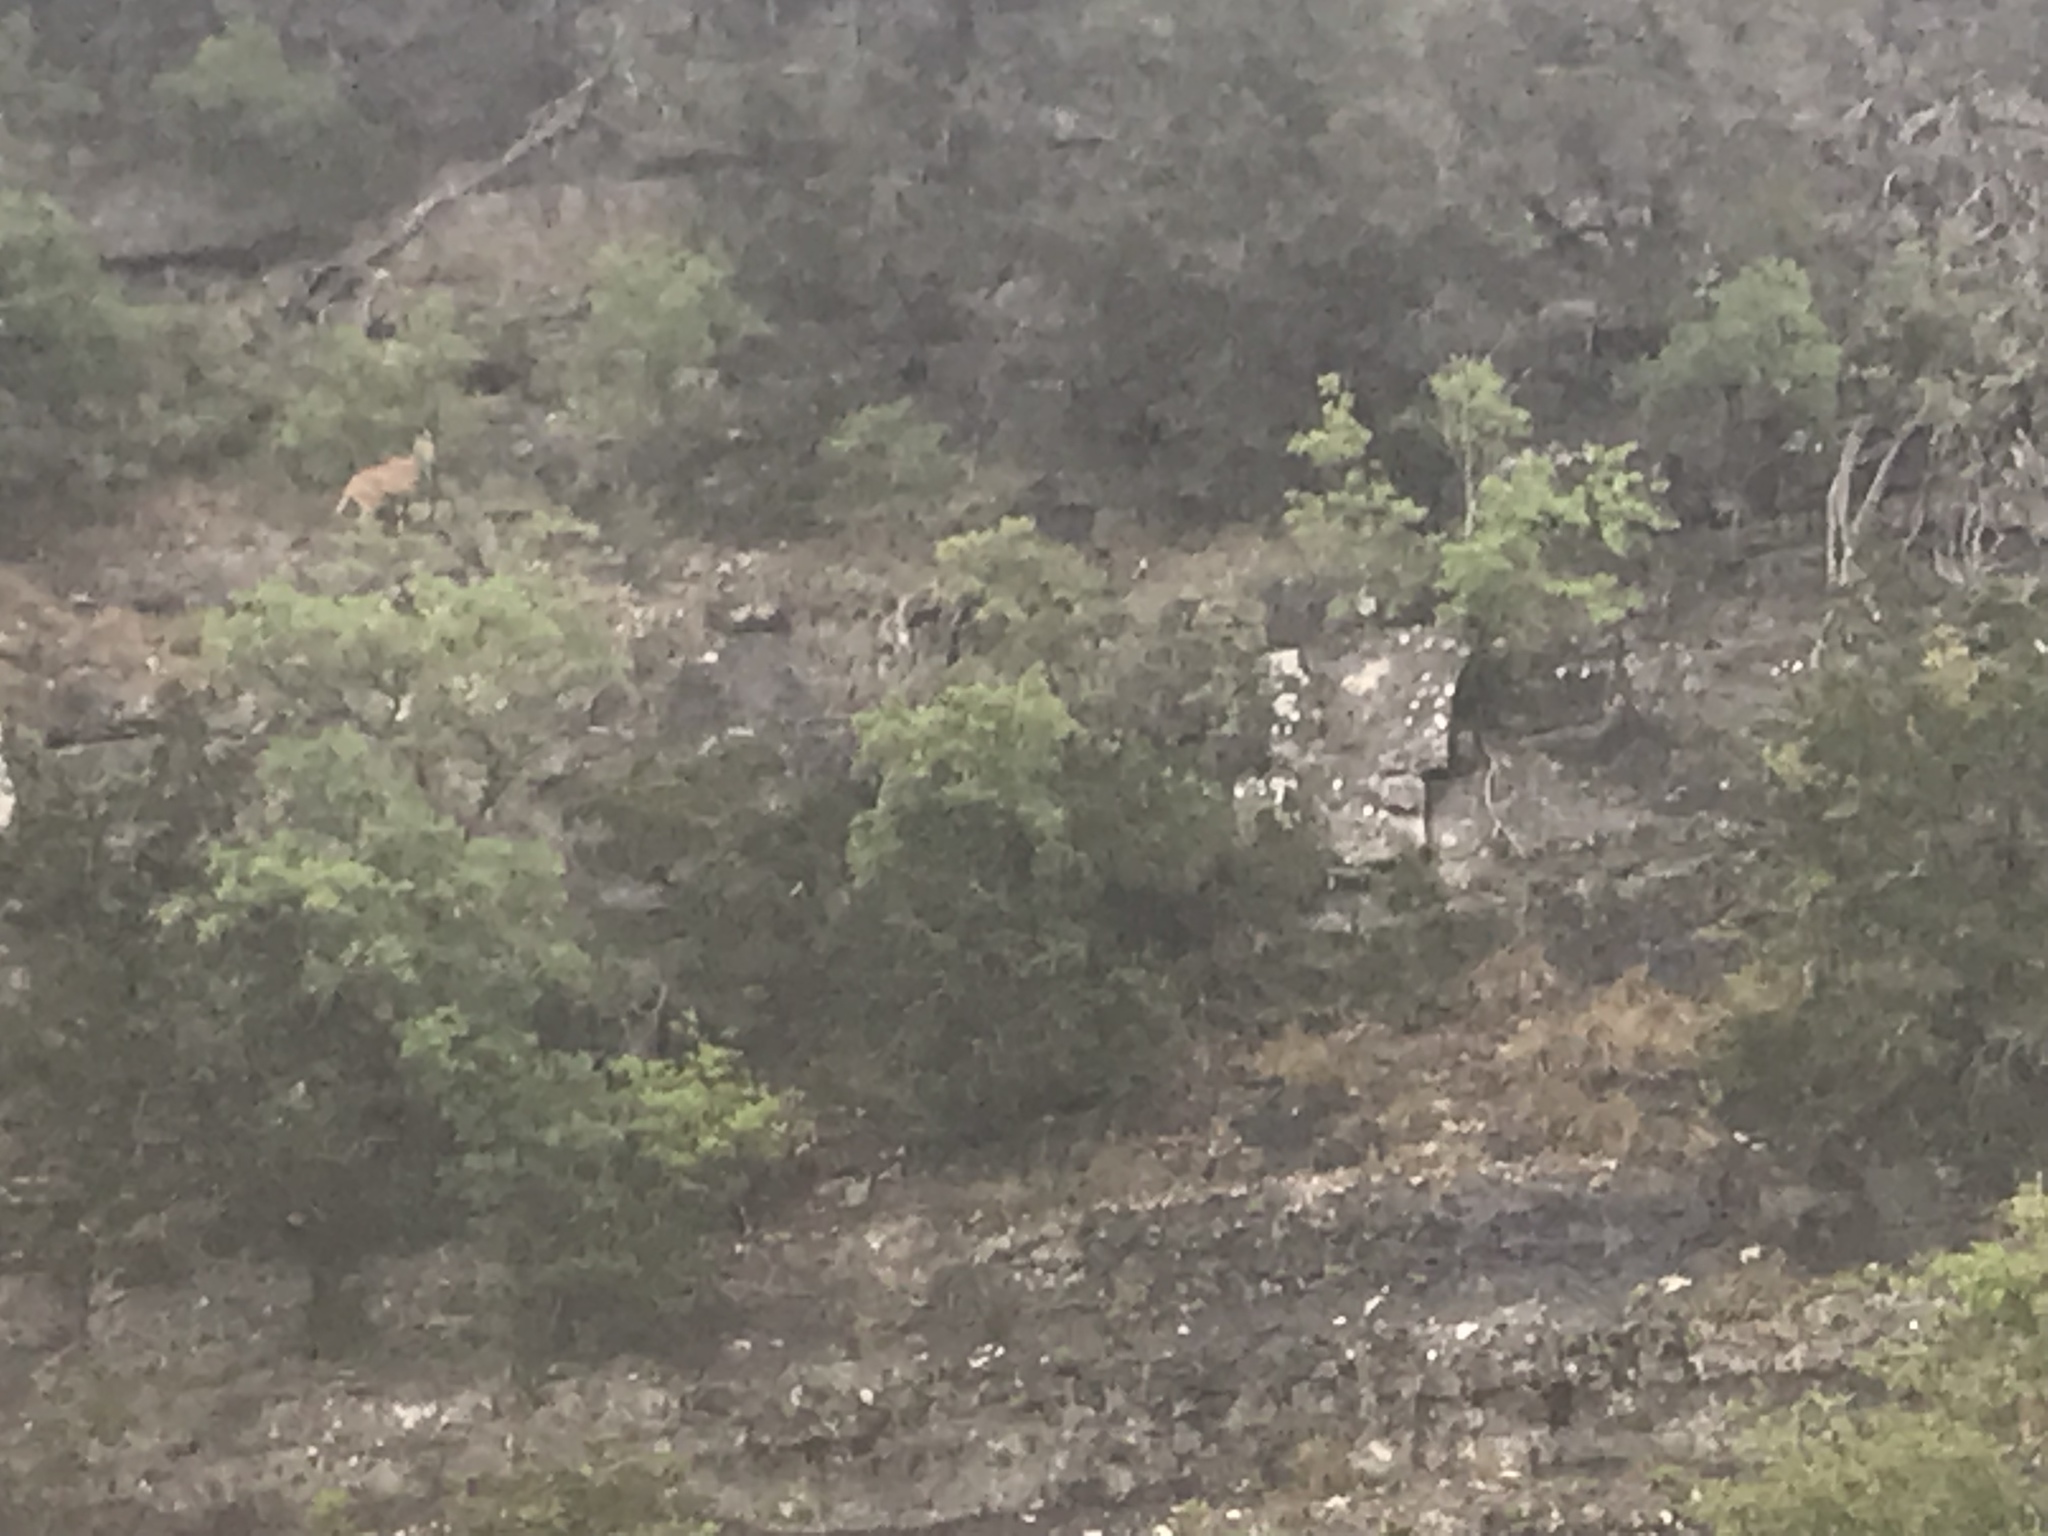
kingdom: Animalia
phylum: Chordata
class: Mammalia
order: Artiodactyla
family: Bovidae
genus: Ammotragus
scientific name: Ammotragus lervia
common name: Barbary sheep
